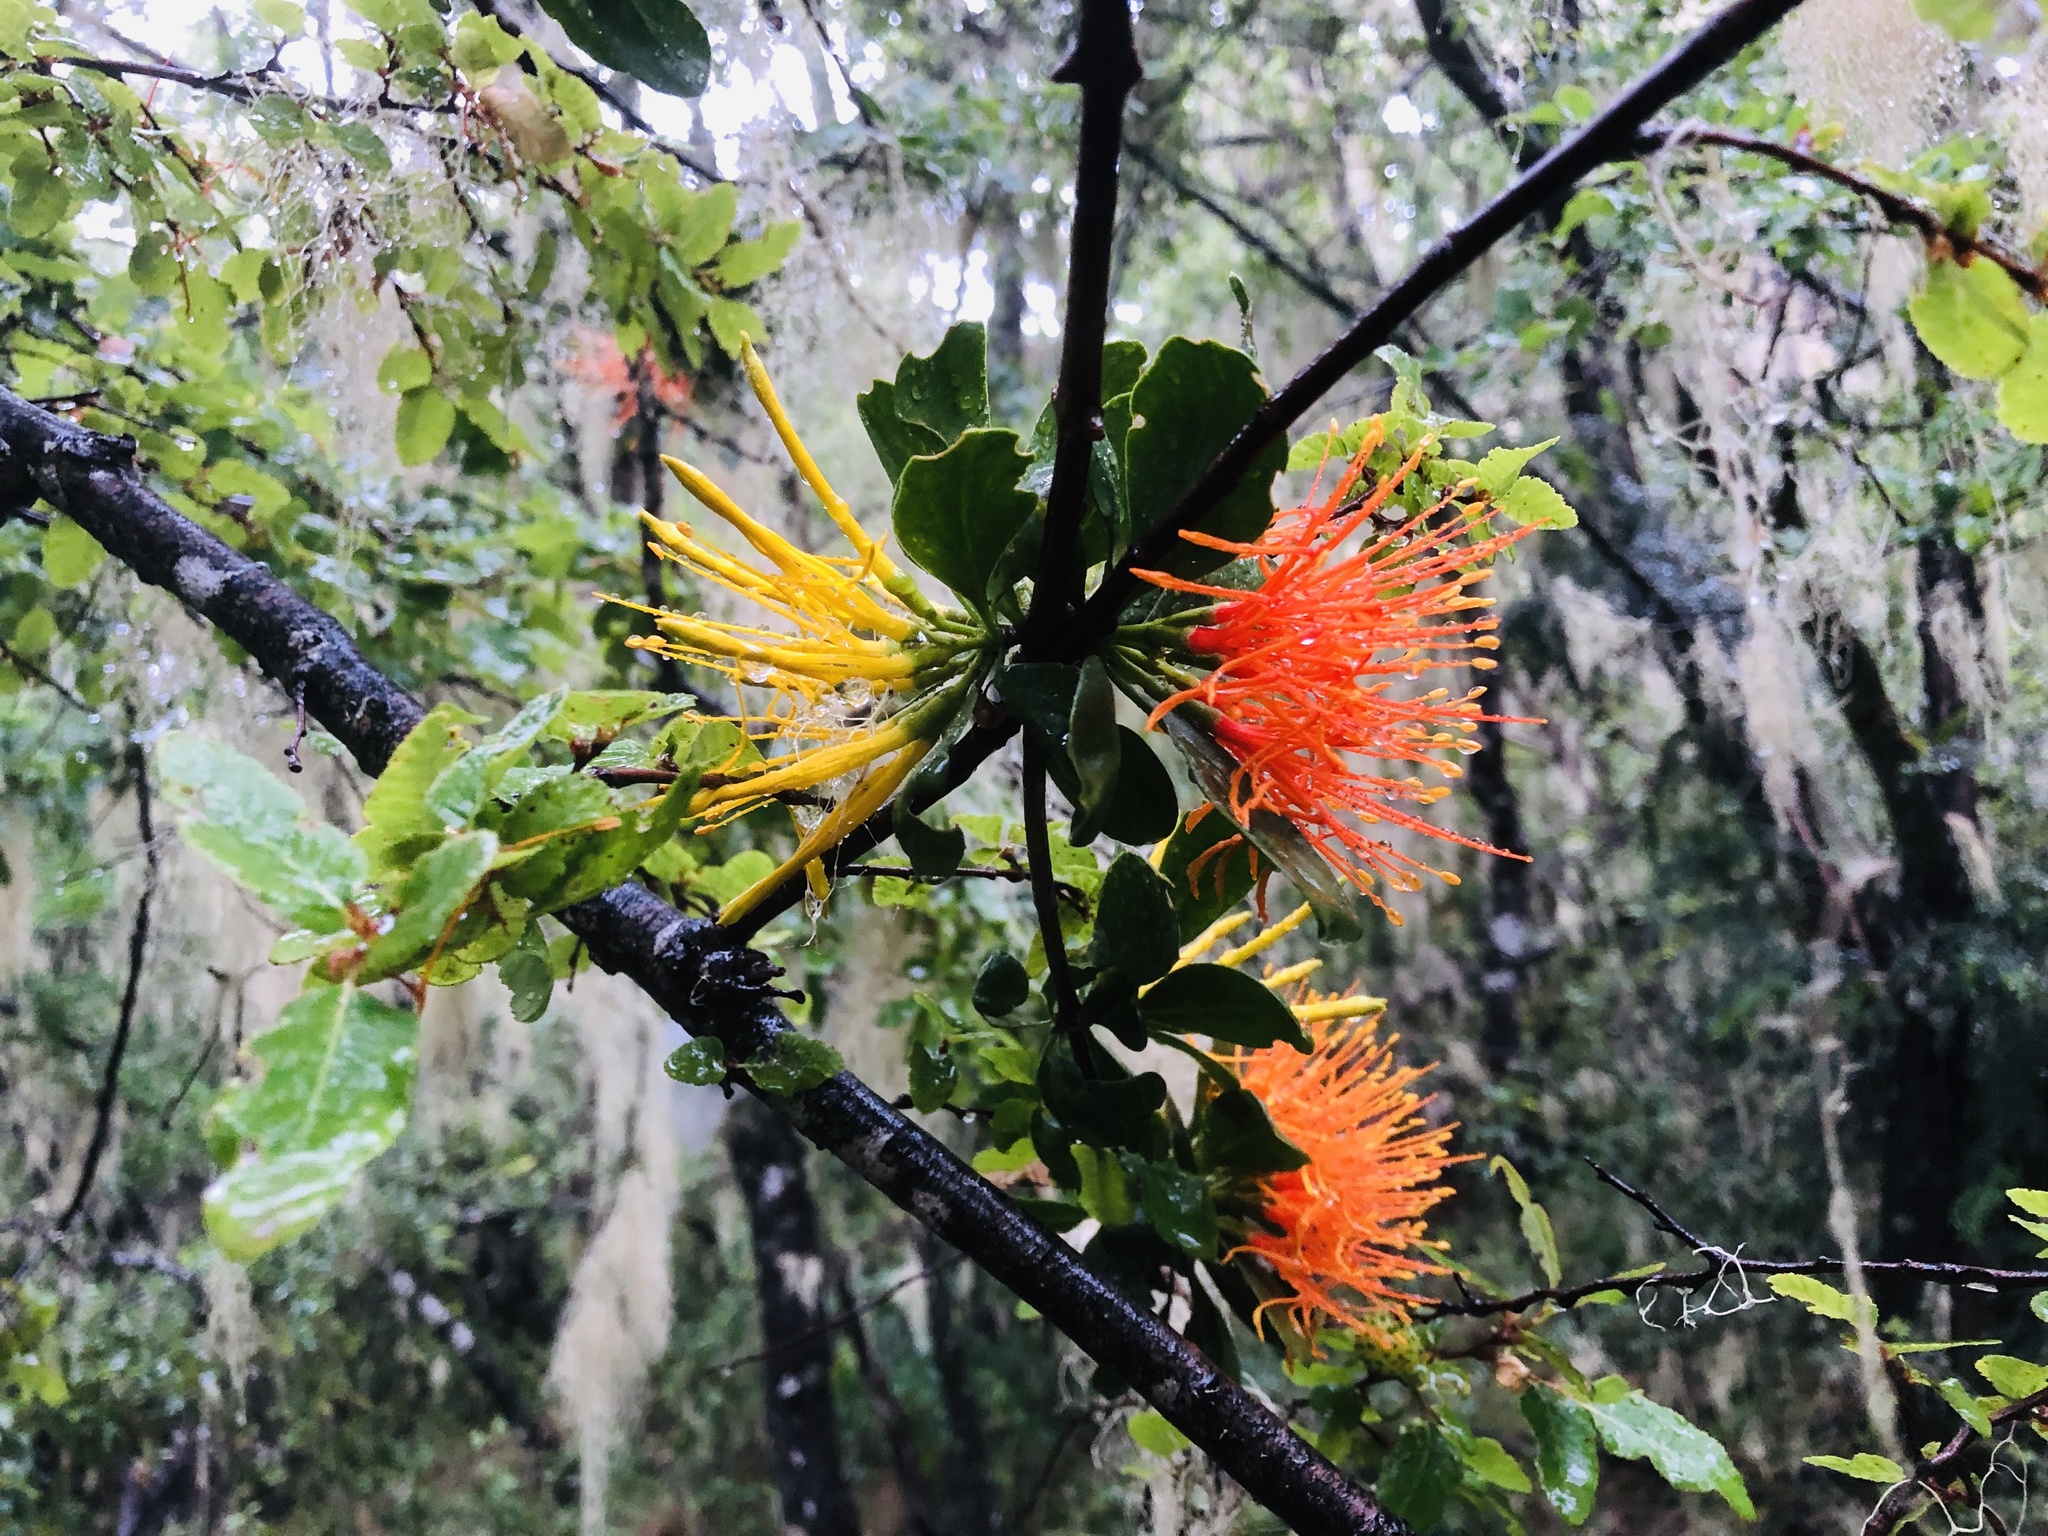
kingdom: Plantae
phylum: Tracheophyta
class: Magnoliopsida
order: Santalales
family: Loranthaceae
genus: Desmaria
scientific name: Desmaria mutabilis
